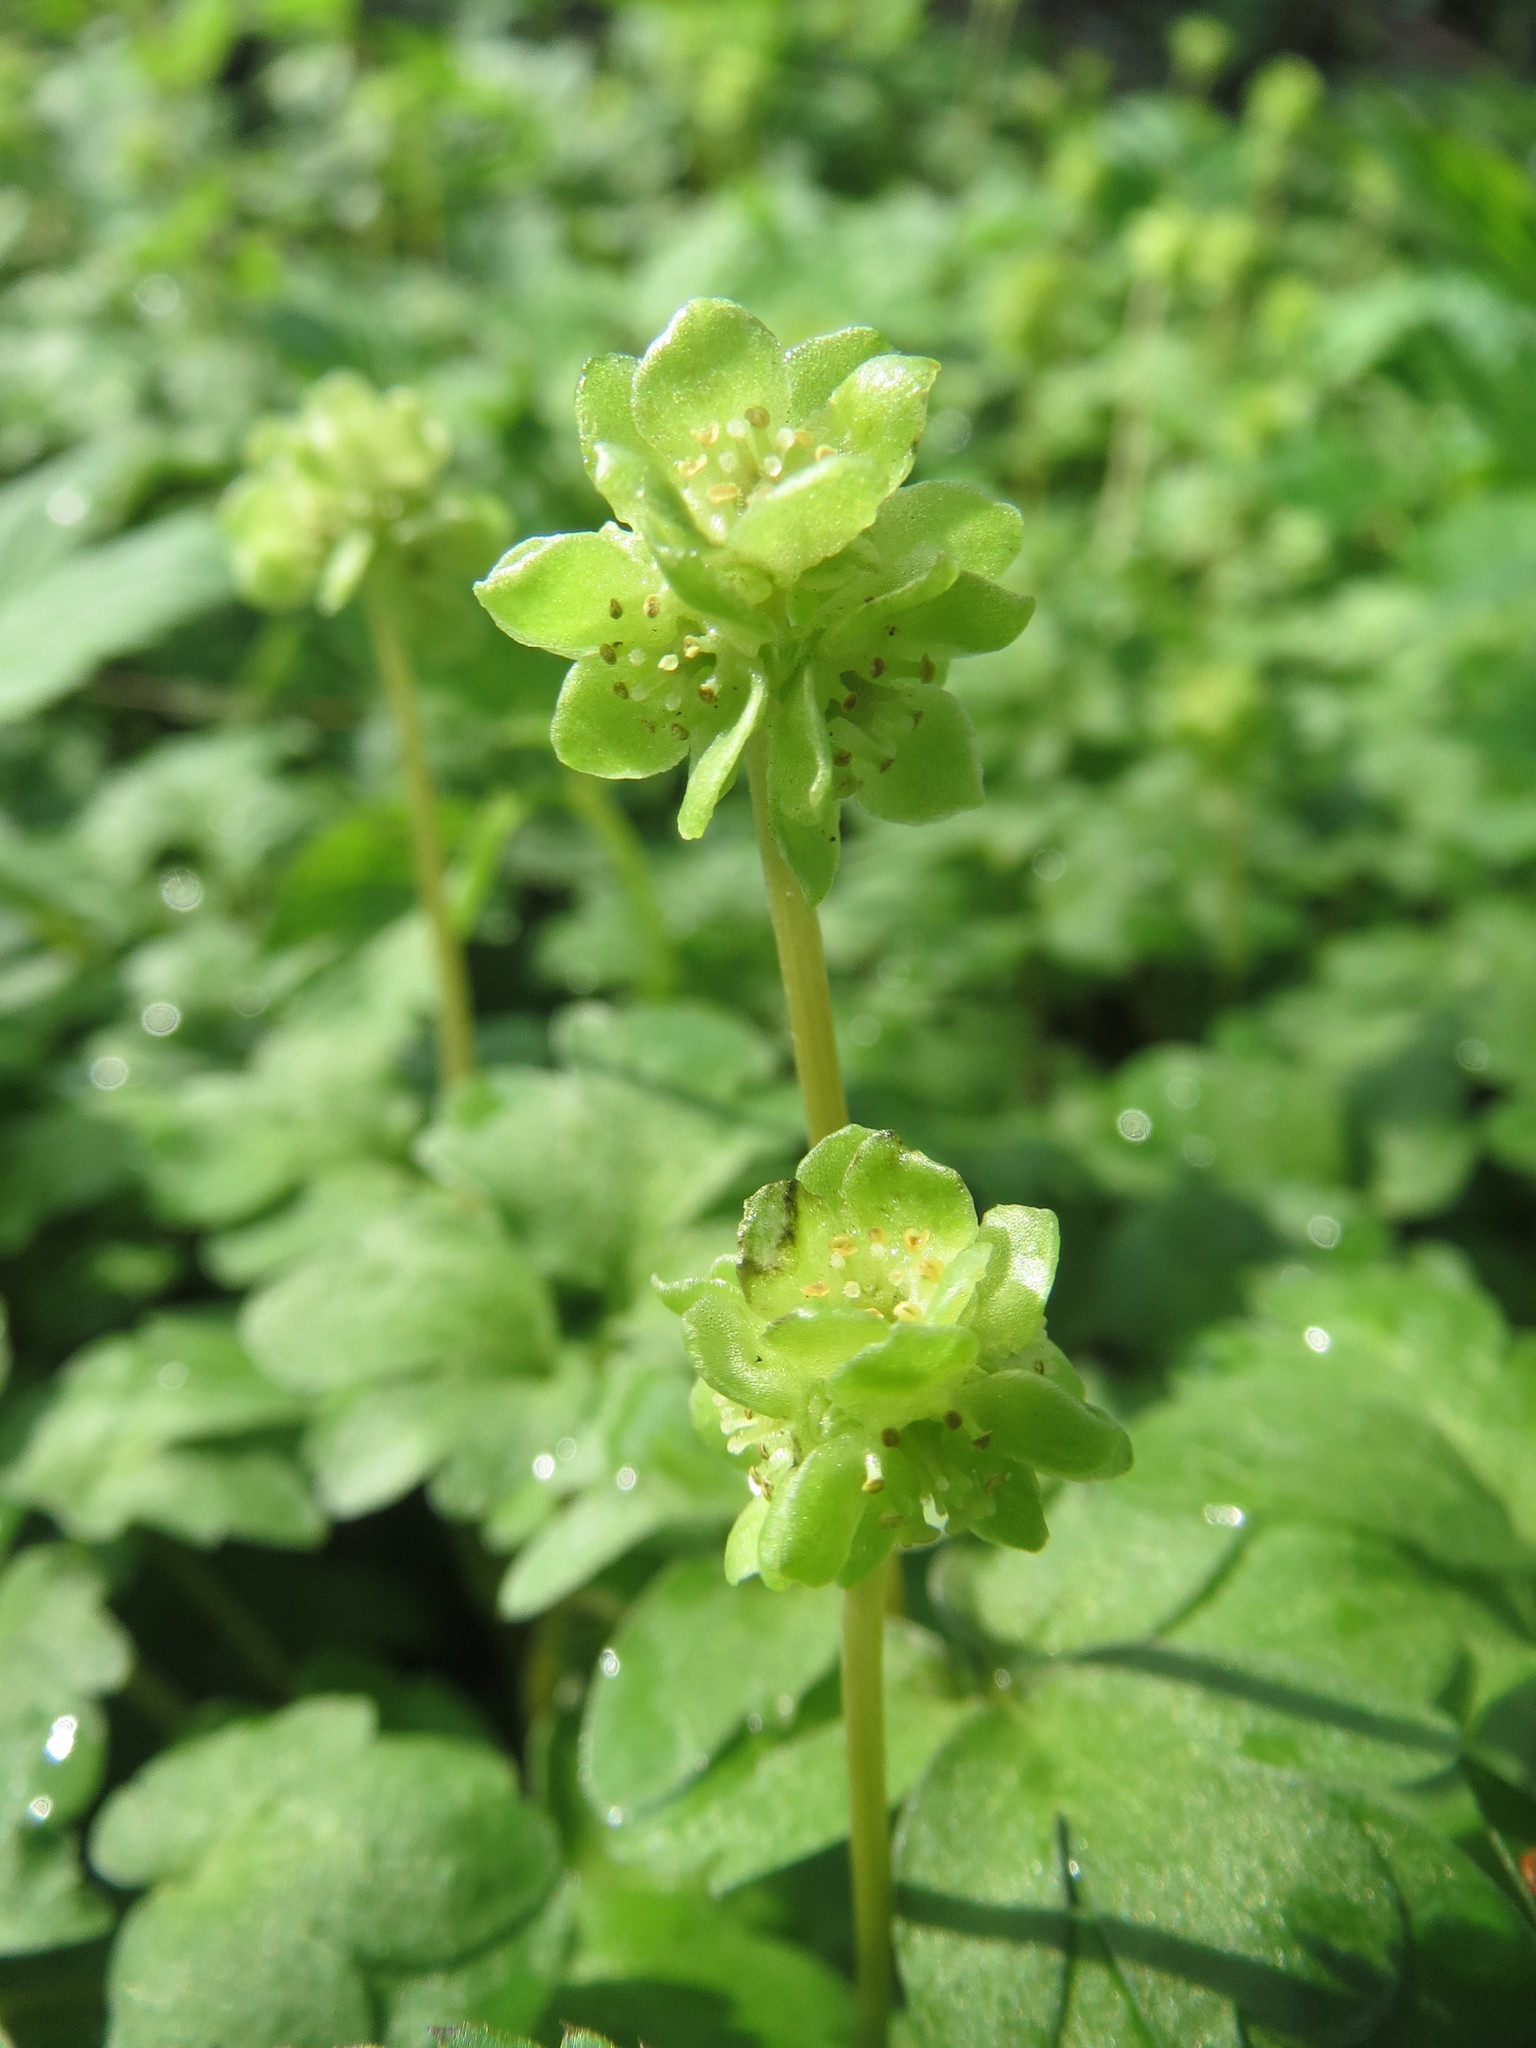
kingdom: Plantae
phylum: Tracheophyta
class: Magnoliopsida
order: Dipsacales
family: Viburnaceae
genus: Adoxa
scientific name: Adoxa moschatellina
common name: Moschatel
